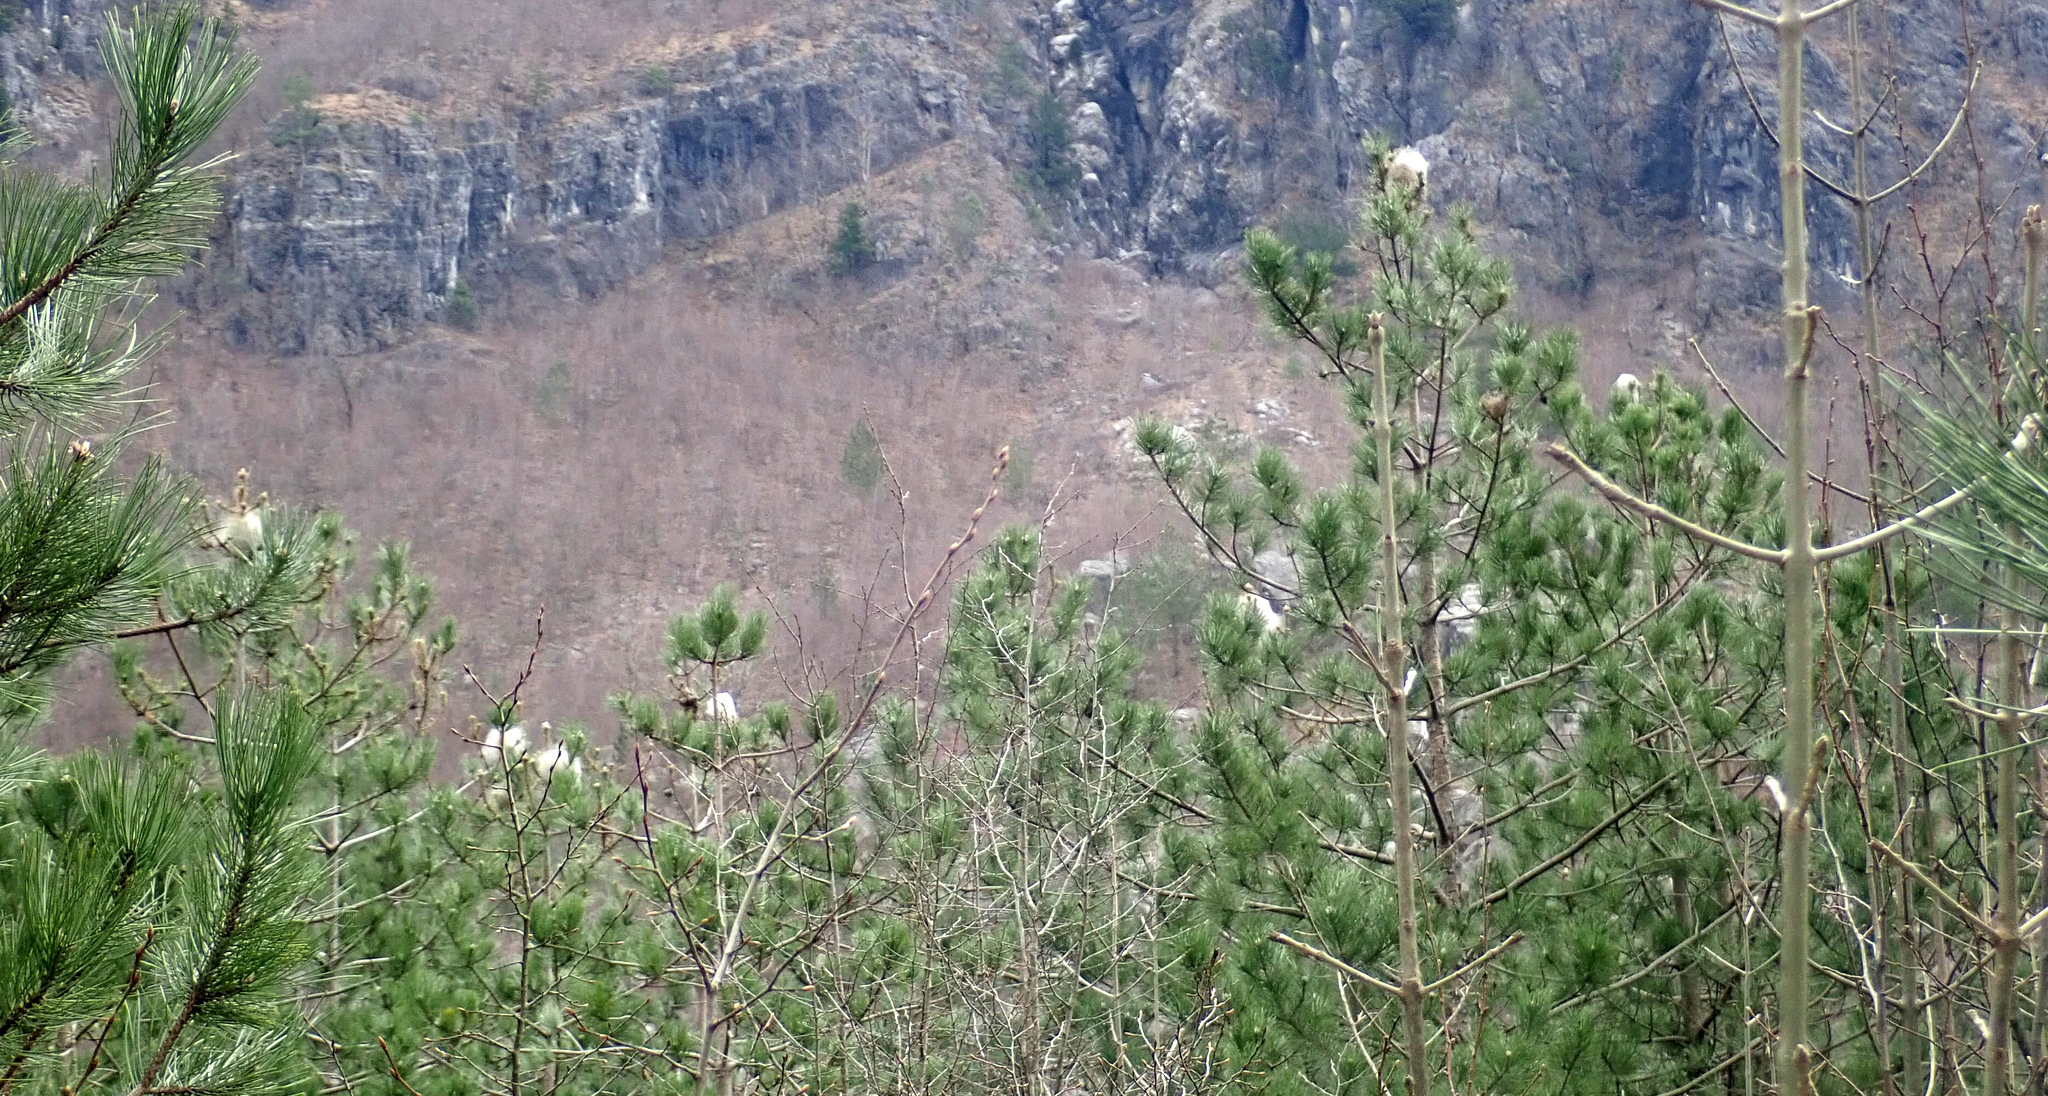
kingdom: Animalia
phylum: Arthropoda
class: Insecta
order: Lepidoptera
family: Notodontidae
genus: Thaumetopoea
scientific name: Thaumetopoea pityocampa
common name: Pine processionary
